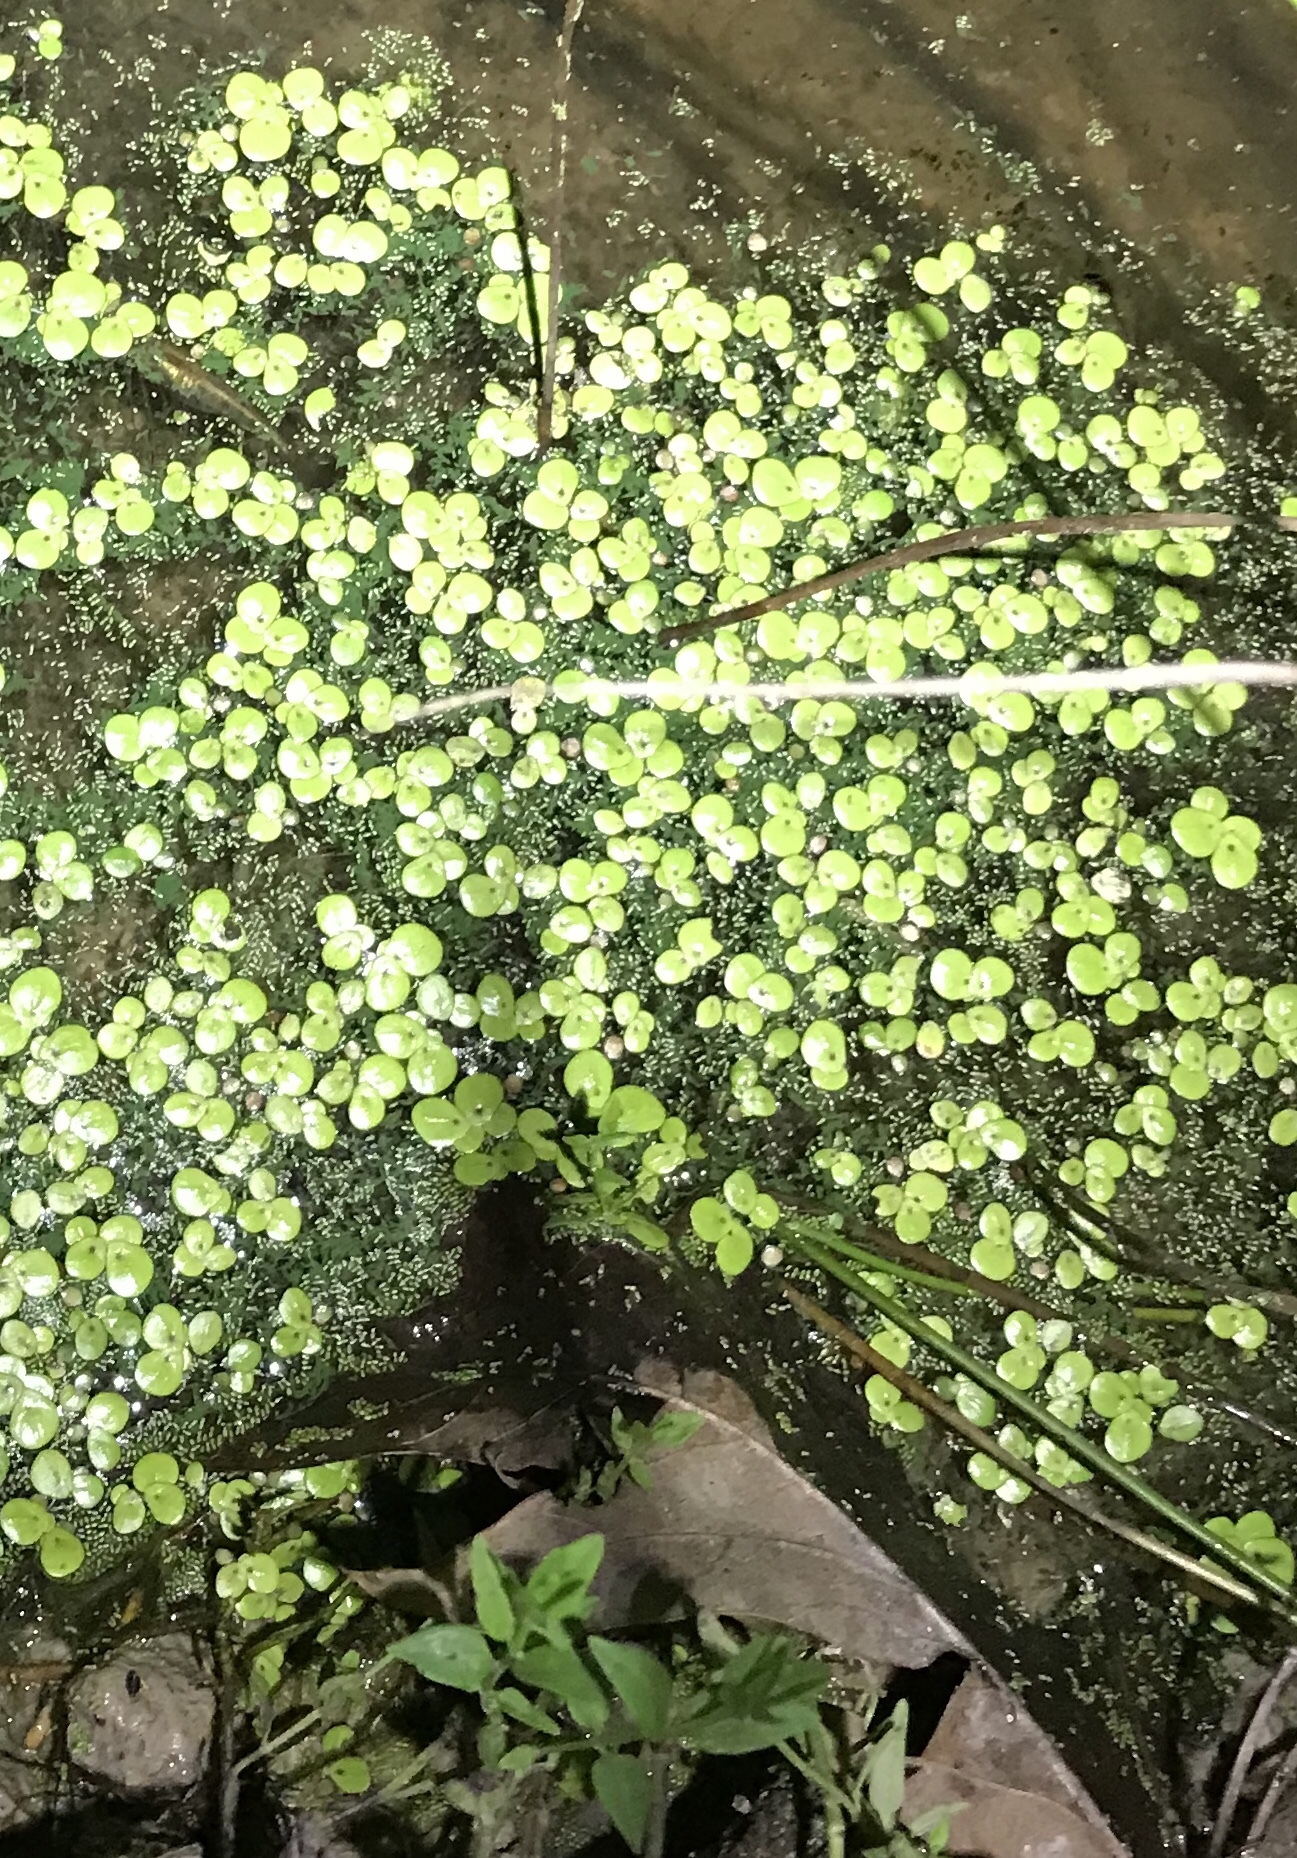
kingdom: Plantae
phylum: Tracheophyta
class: Liliopsida
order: Alismatales
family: Araceae
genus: Spirodela
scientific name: Spirodela polyrhiza
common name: Great duckweed
